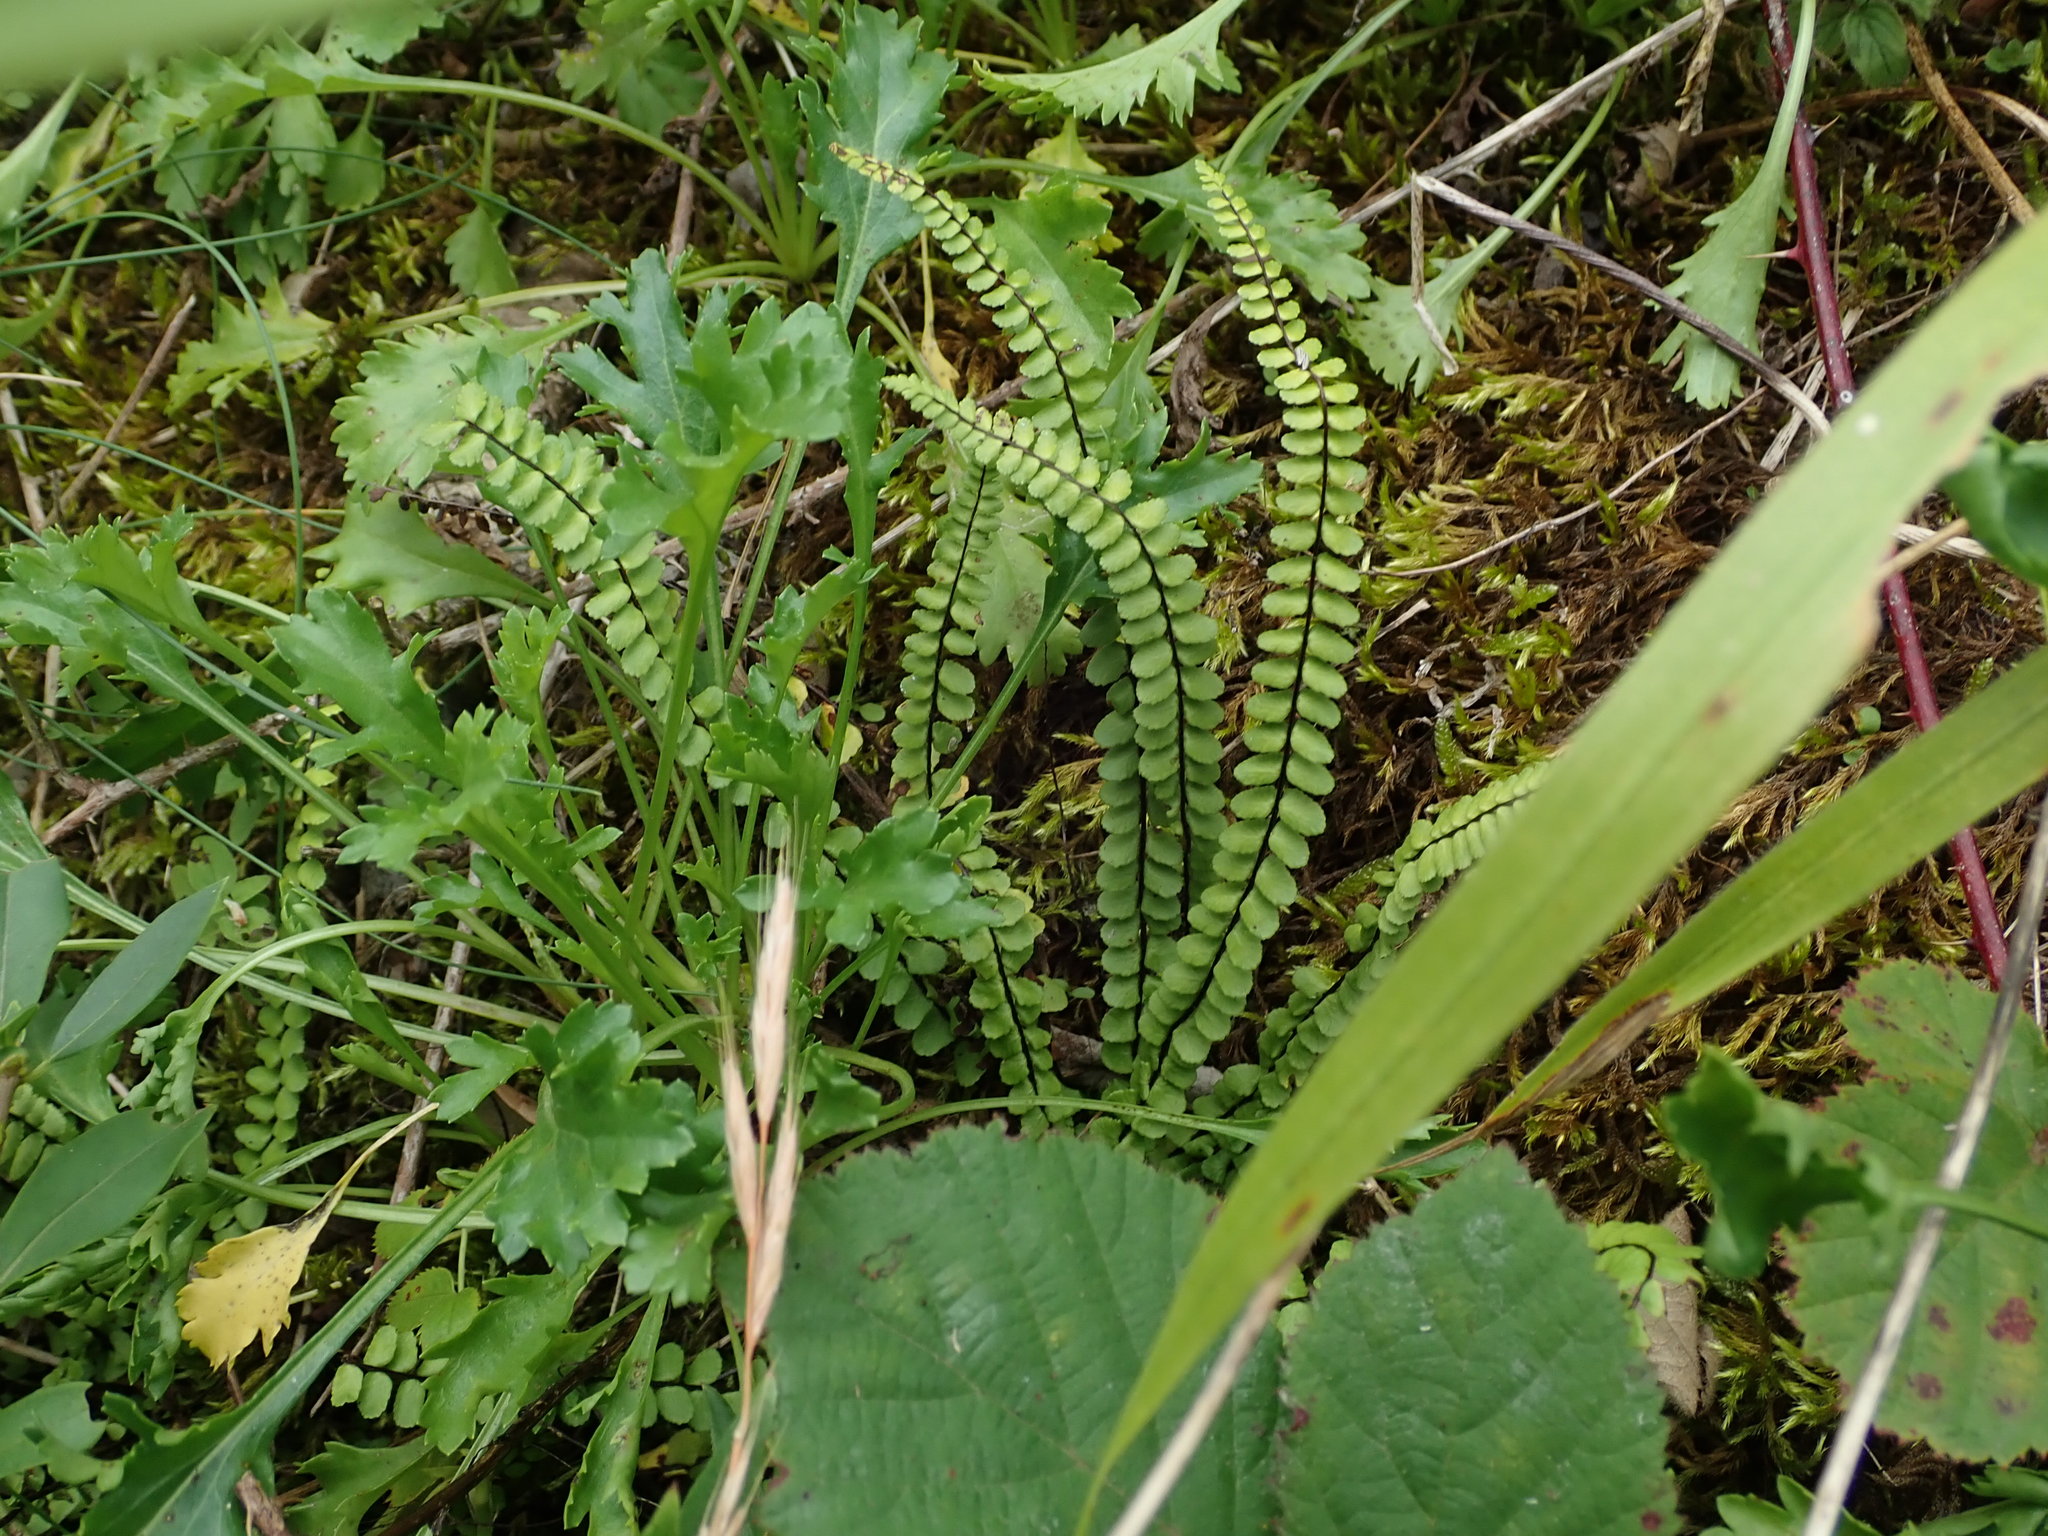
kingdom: Plantae
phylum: Tracheophyta
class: Polypodiopsida
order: Polypodiales
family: Aspleniaceae
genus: Asplenium
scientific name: Asplenium trichomanes
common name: Maidenhair spleenwort
